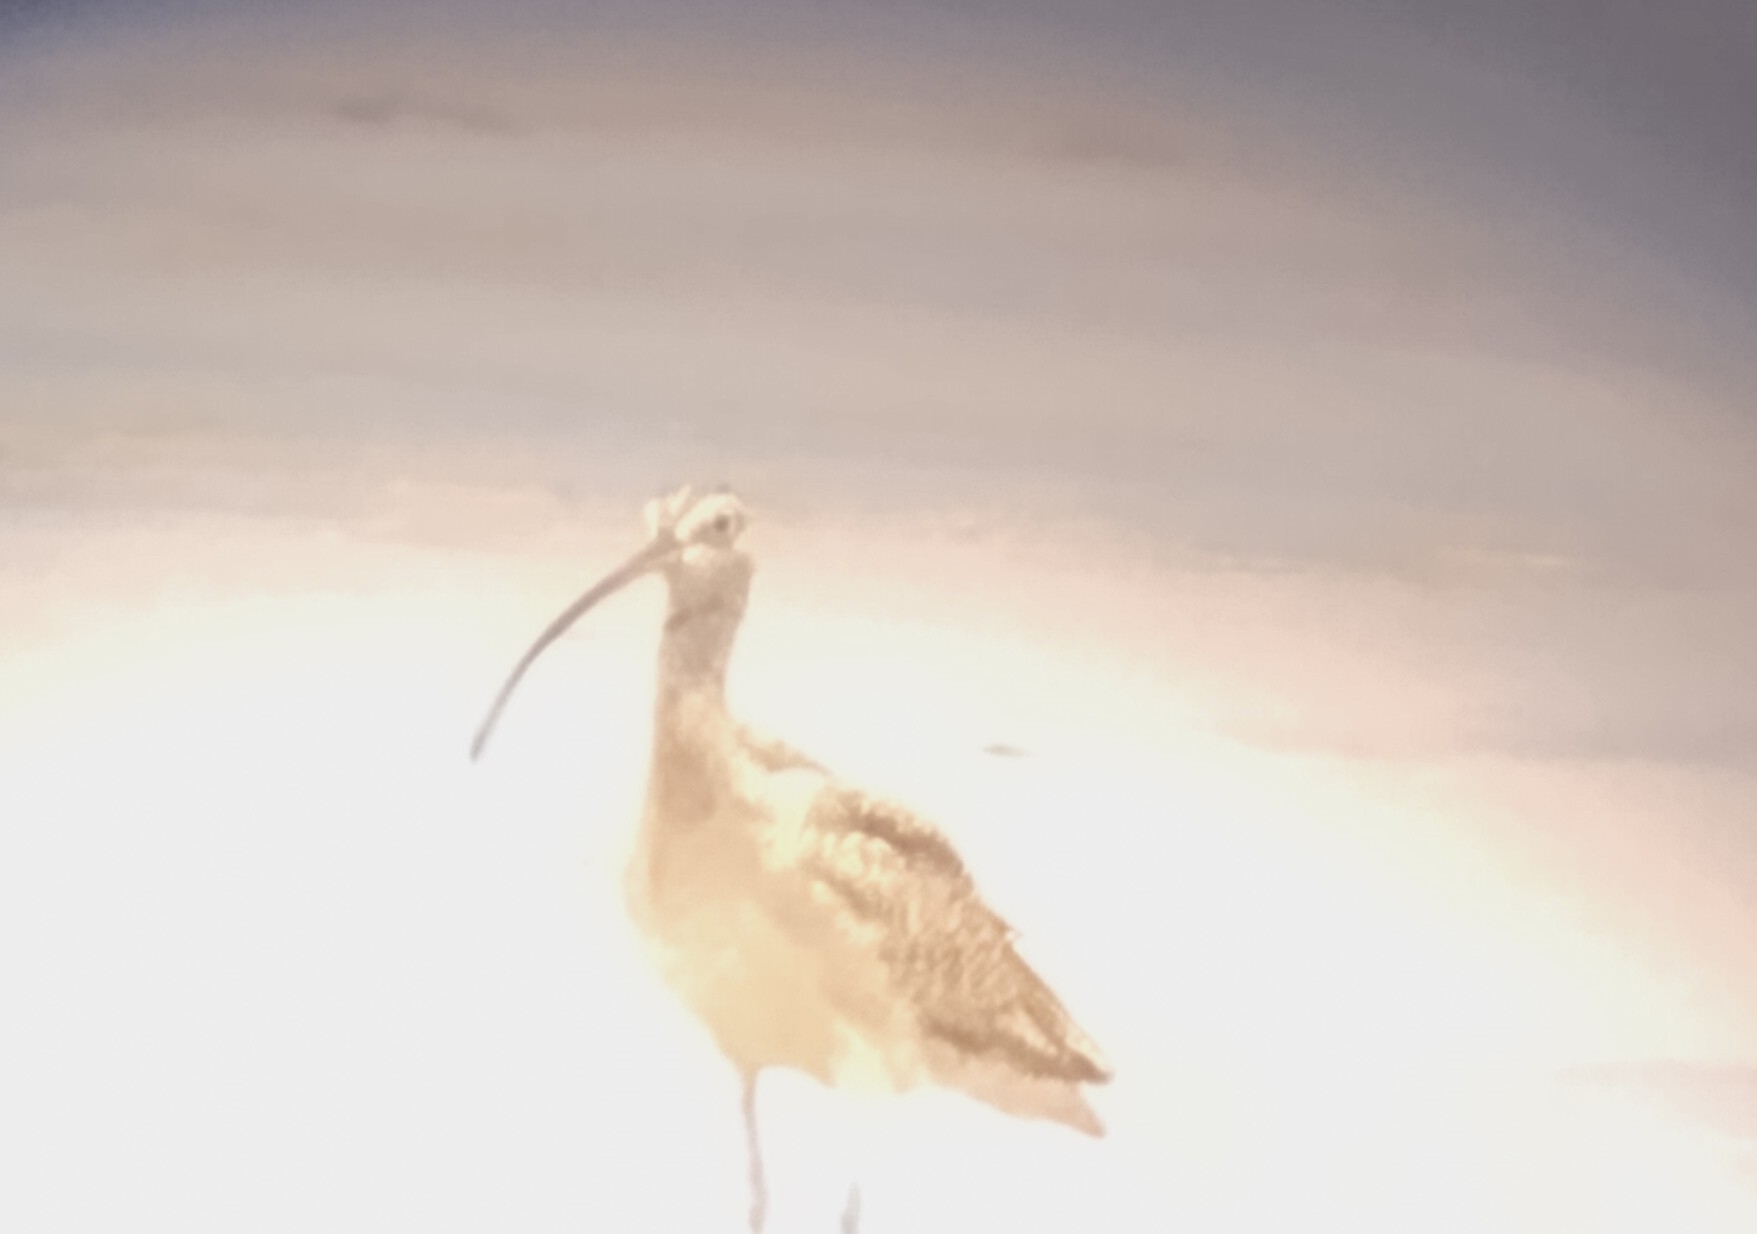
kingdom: Animalia
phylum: Chordata
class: Aves
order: Charadriiformes
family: Scolopacidae
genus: Numenius
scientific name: Numenius americanus
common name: Long-billed curlew
